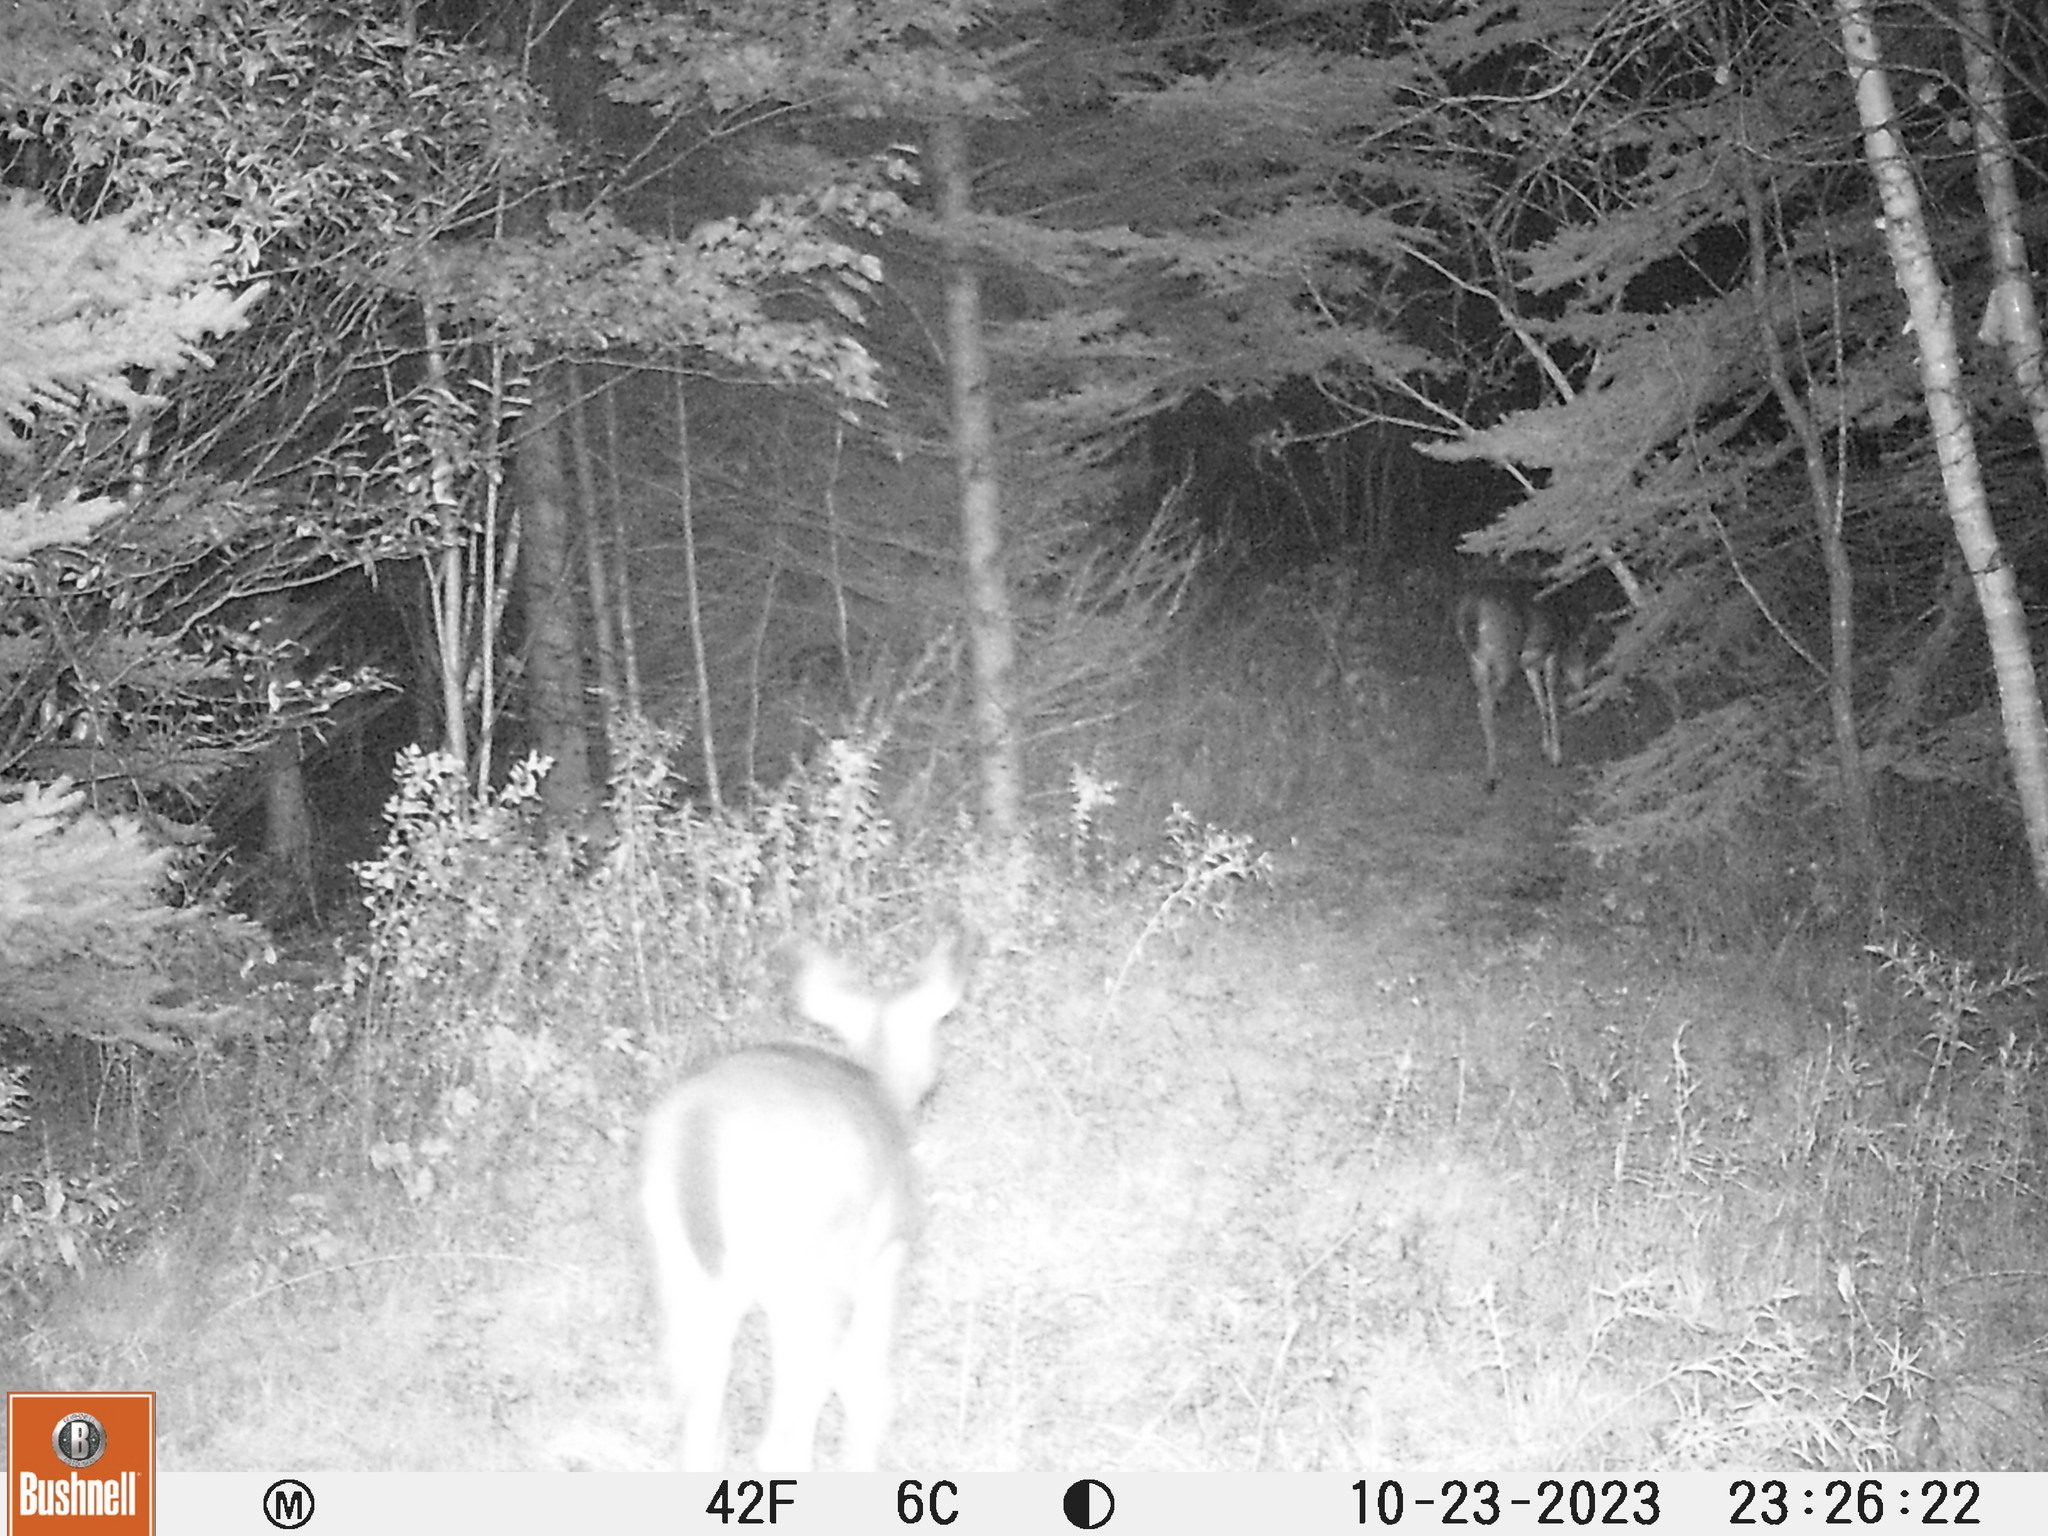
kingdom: Animalia
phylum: Chordata
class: Mammalia
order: Artiodactyla
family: Cervidae
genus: Odocoileus
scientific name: Odocoileus virginianus
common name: White-tailed deer
